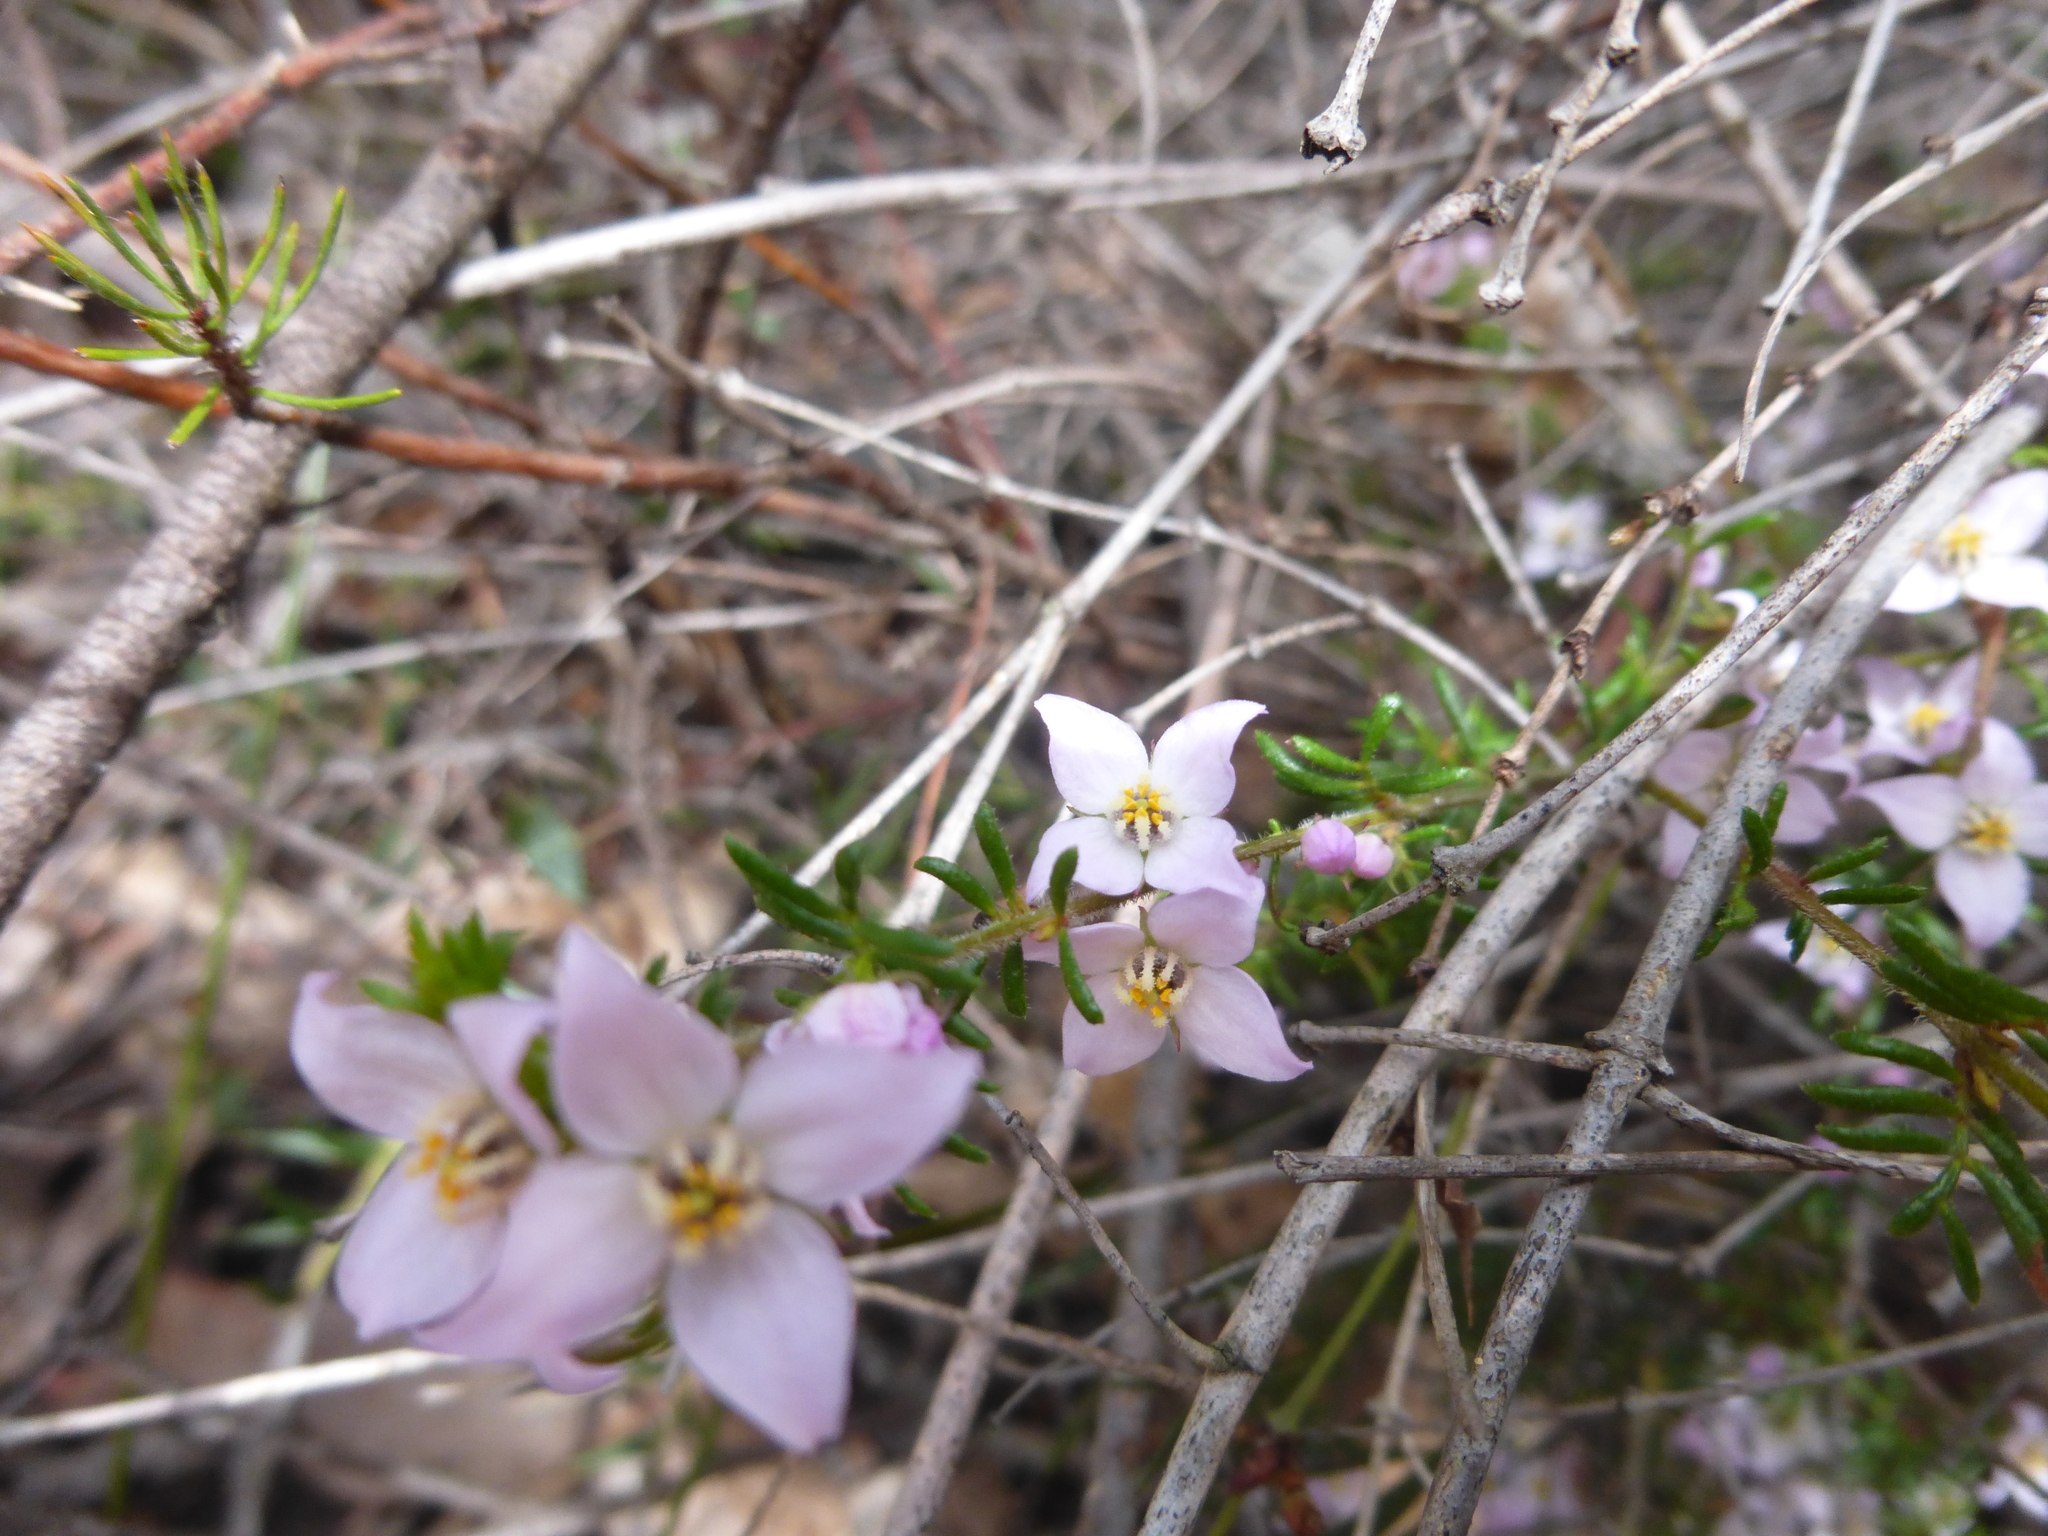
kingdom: Plantae
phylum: Tracheophyta
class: Magnoliopsida
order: Sapindales
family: Rutaceae
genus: Boronia
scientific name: Boronia pilosa
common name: Hairy boronia
